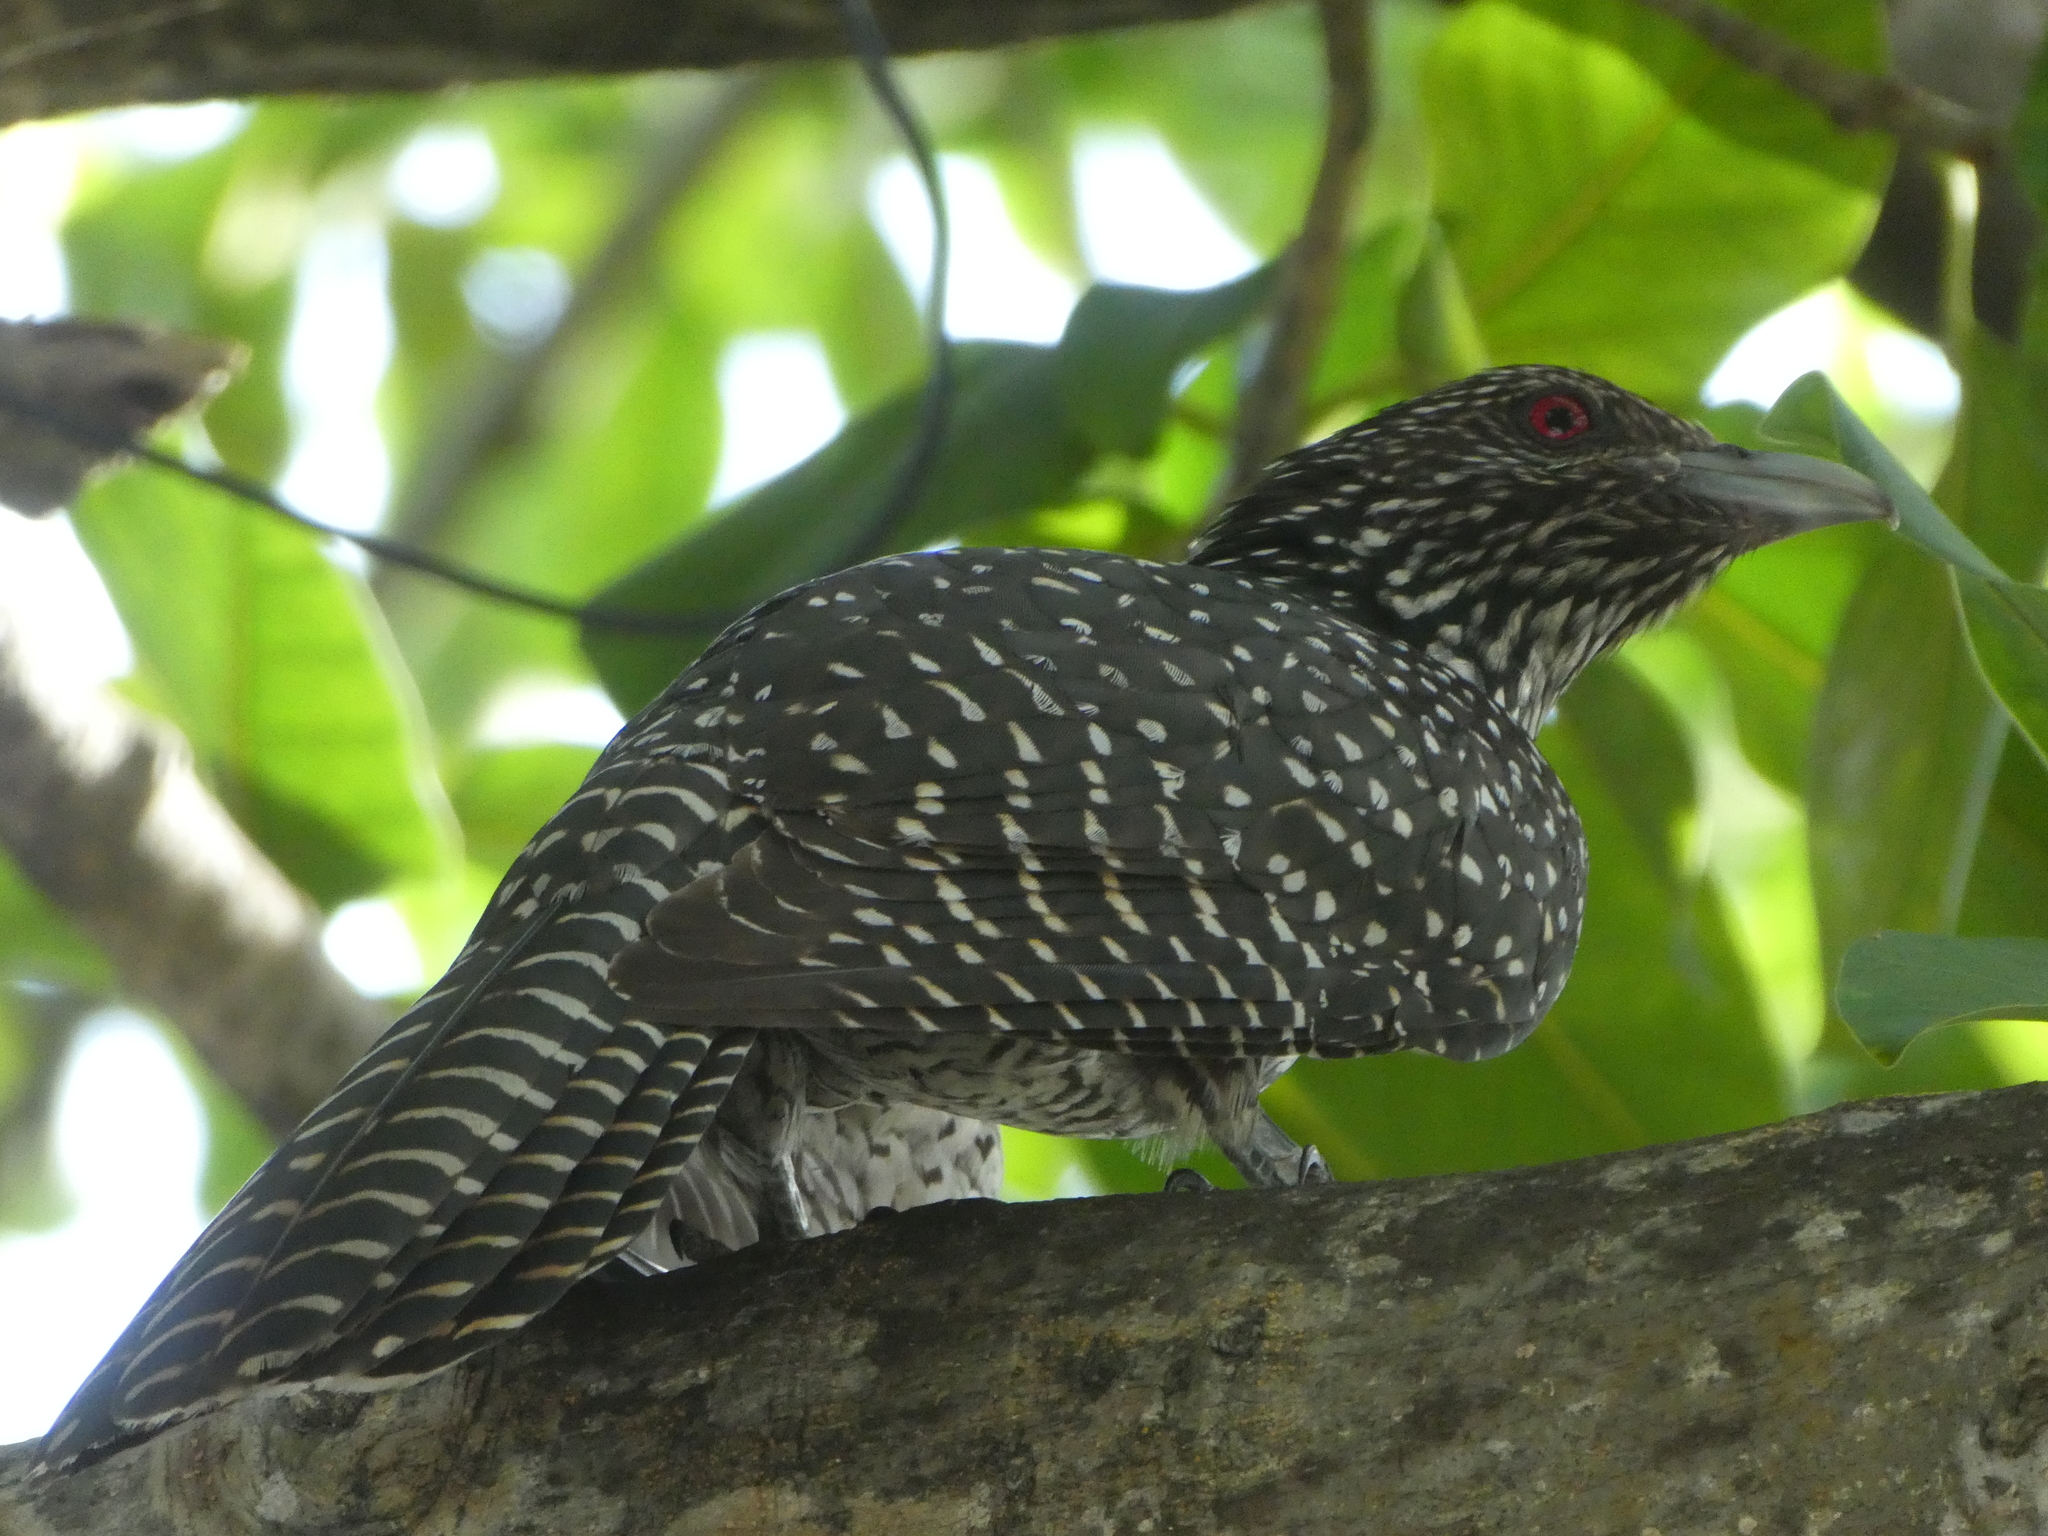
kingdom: Animalia
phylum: Chordata
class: Aves
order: Cuculiformes
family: Cuculidae
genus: Eudynamys
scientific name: Eudynamys scolopaceus
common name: Asian koel
